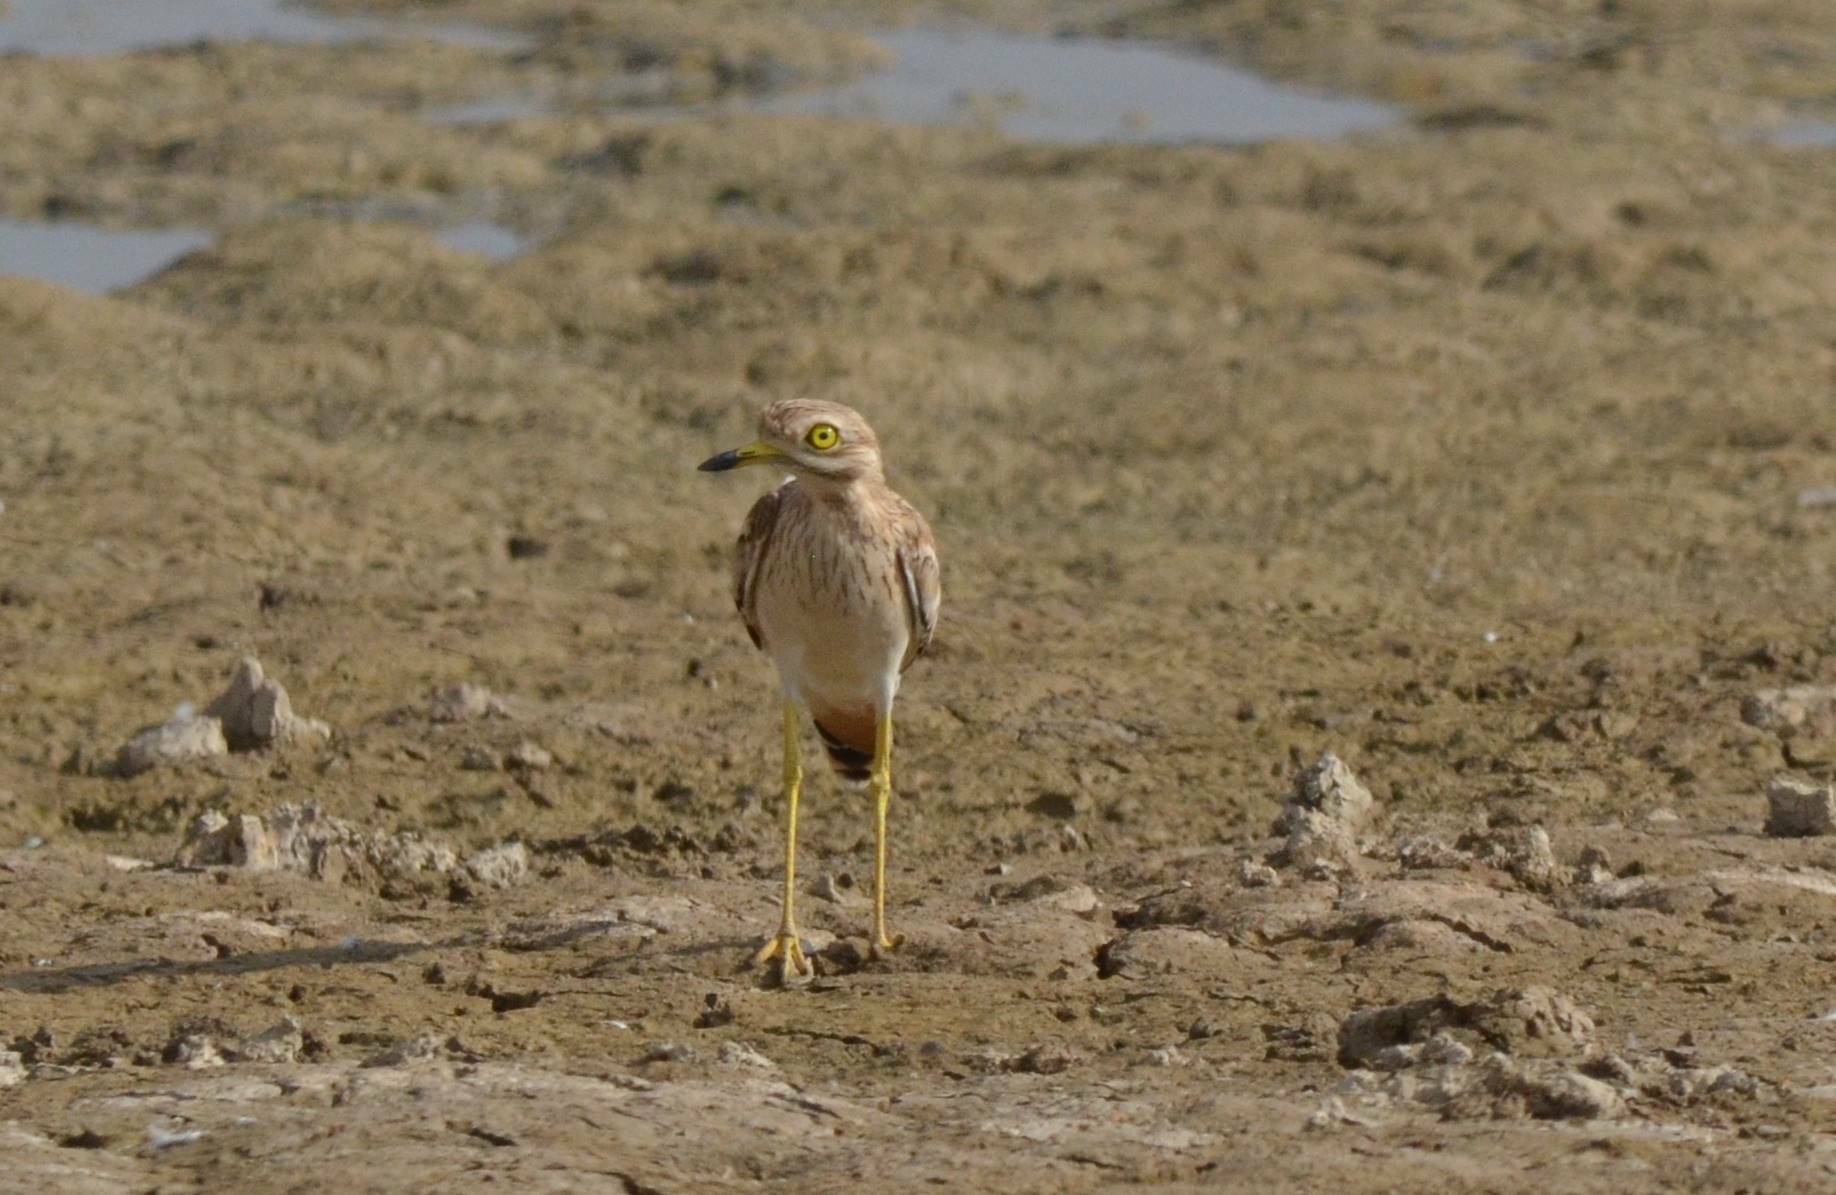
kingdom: Animalia
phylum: Chordata
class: Aves
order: Charadriiformes
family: Burhinidae
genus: Burhinus
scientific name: Burhinus oedicnemus
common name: Eurasian stone-curlew
